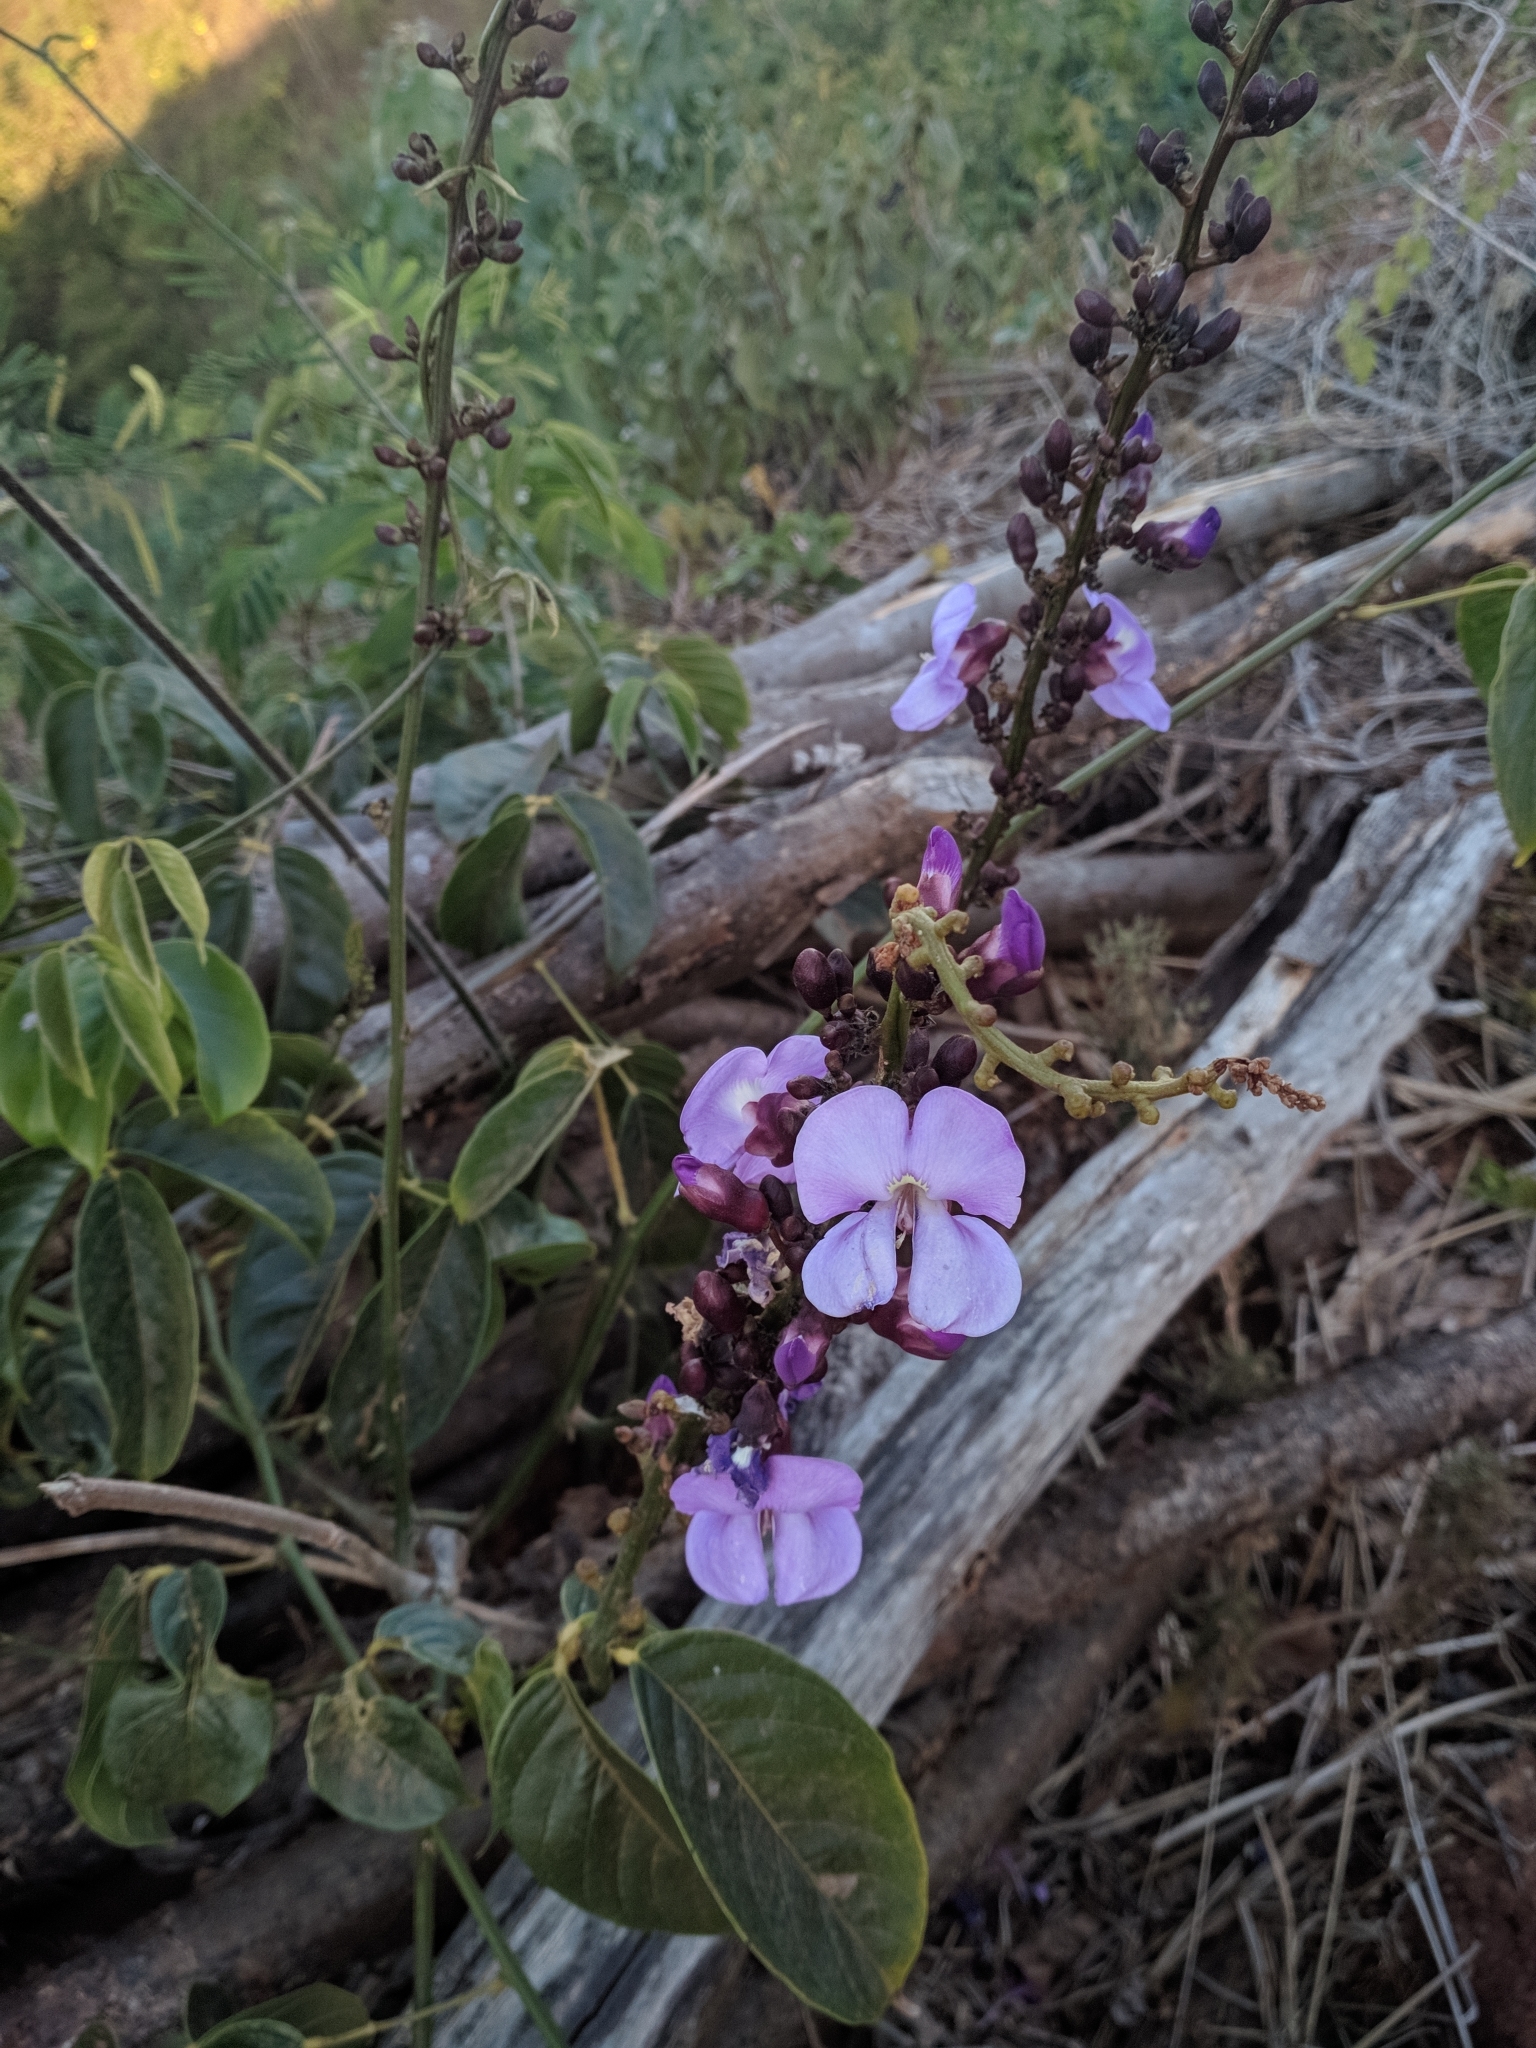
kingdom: Plantae
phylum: Tracheophyta
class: Magnoliopsida
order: Fabales
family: Fabaceae
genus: Macropsychanthus
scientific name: Macropsychanthus sclerocarpus
